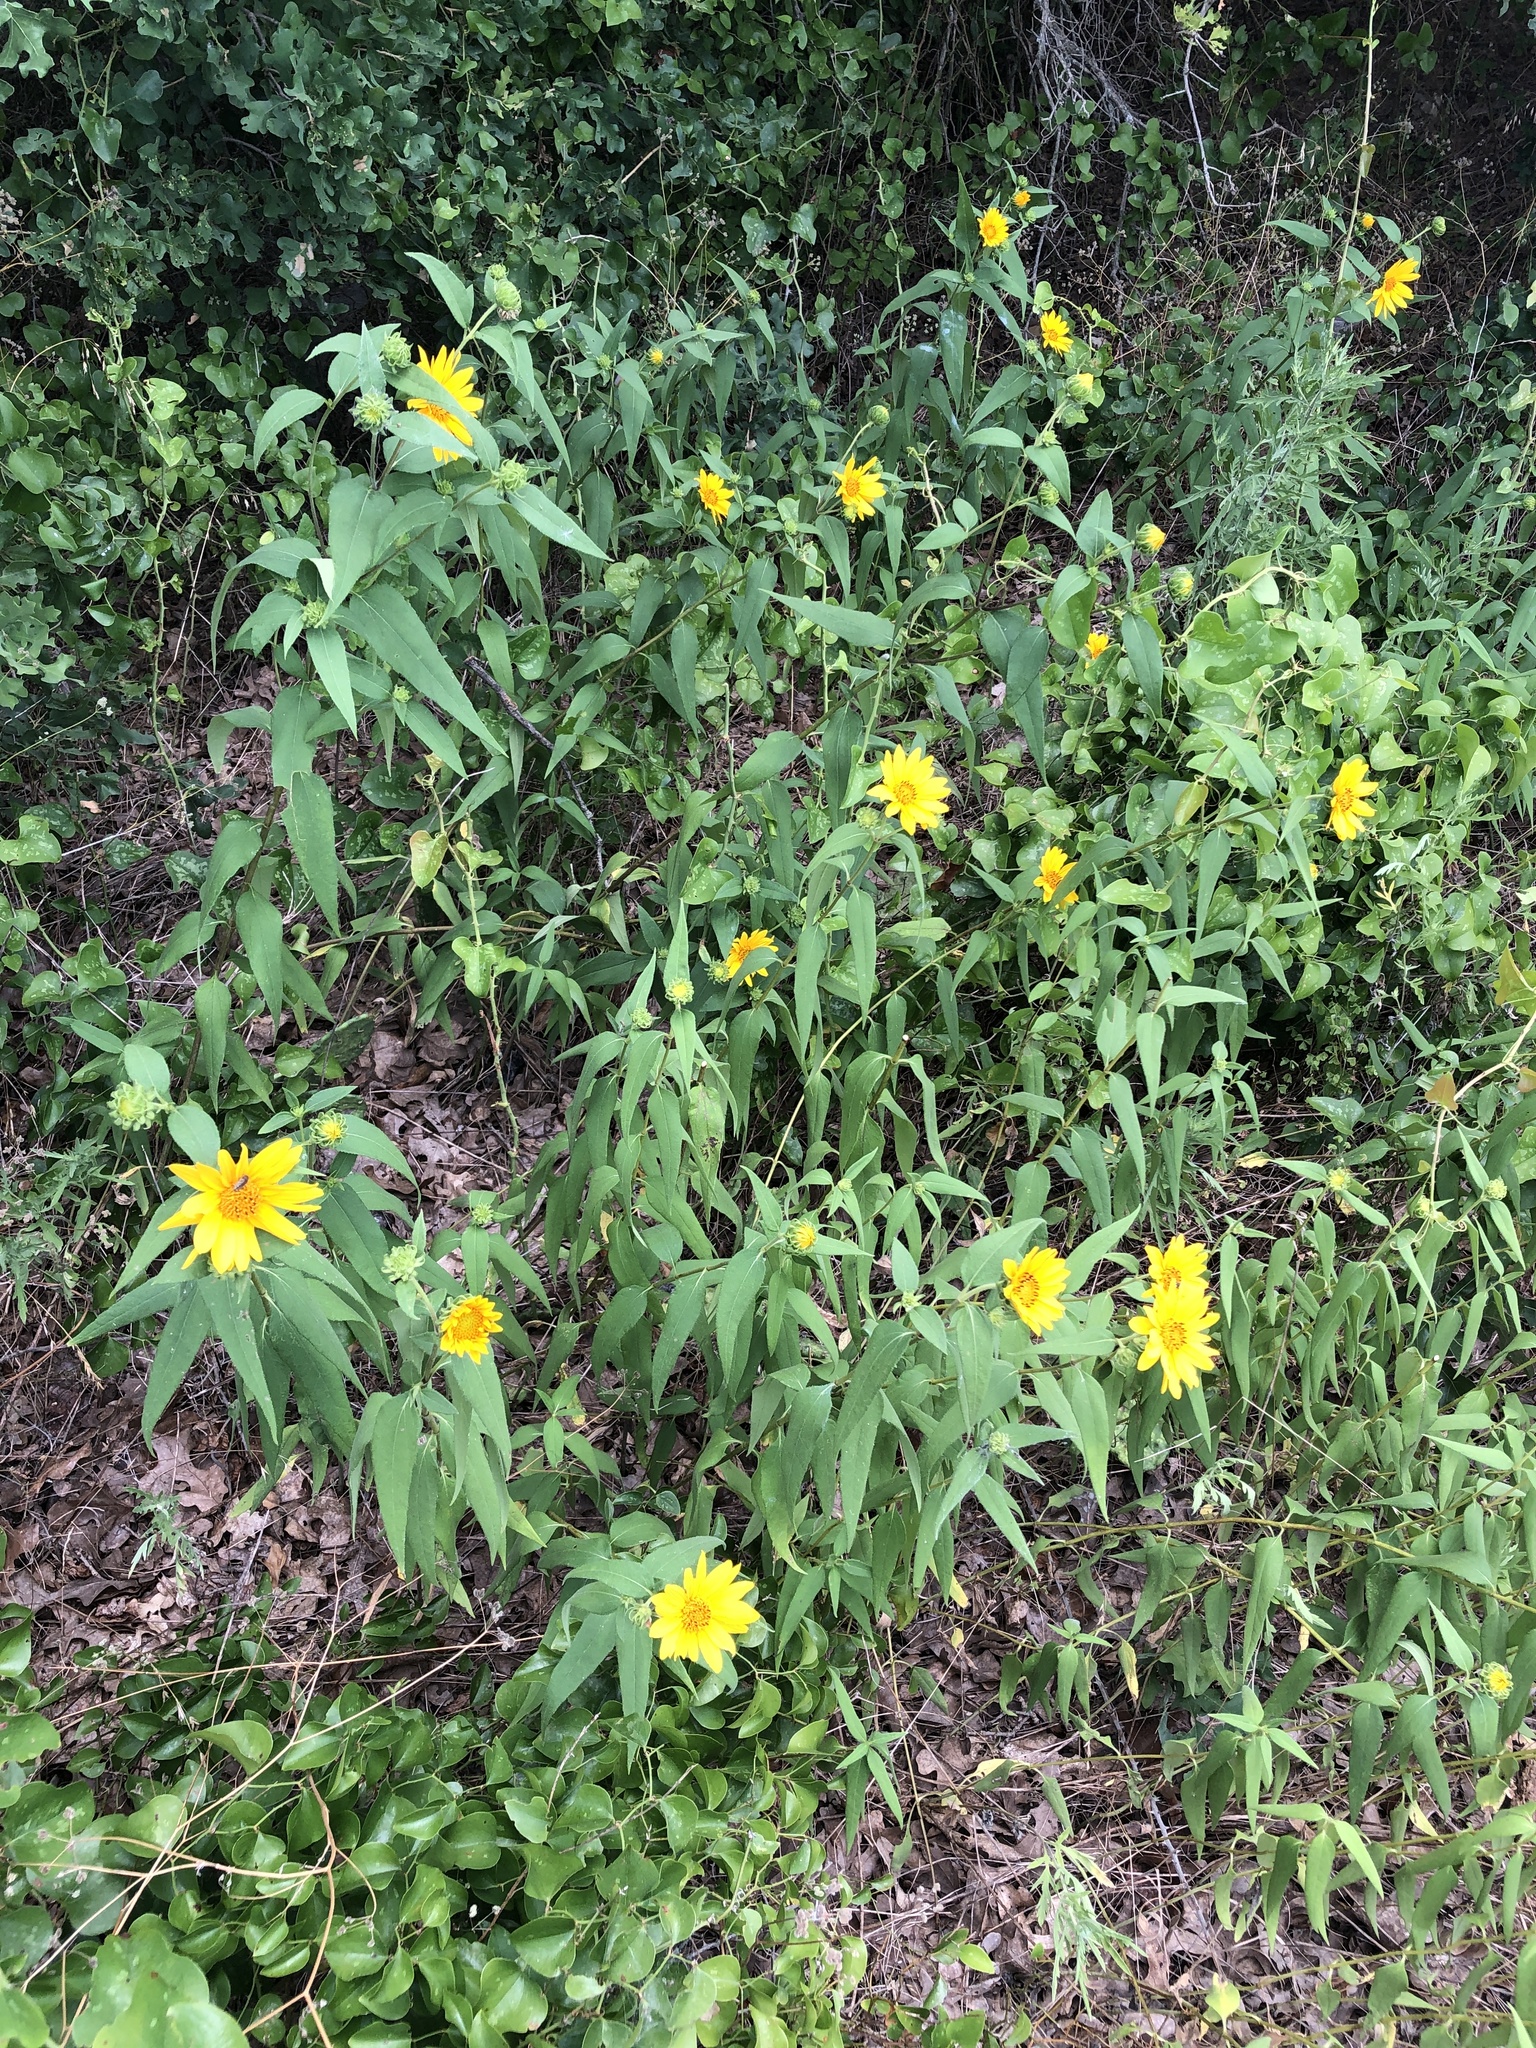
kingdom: Plantae
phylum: Tracheophyta
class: Magnoliopsida
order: Asterales
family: Asteraceae
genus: Helianthus
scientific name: Helianthus hirsutus
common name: Hairy sunflower
